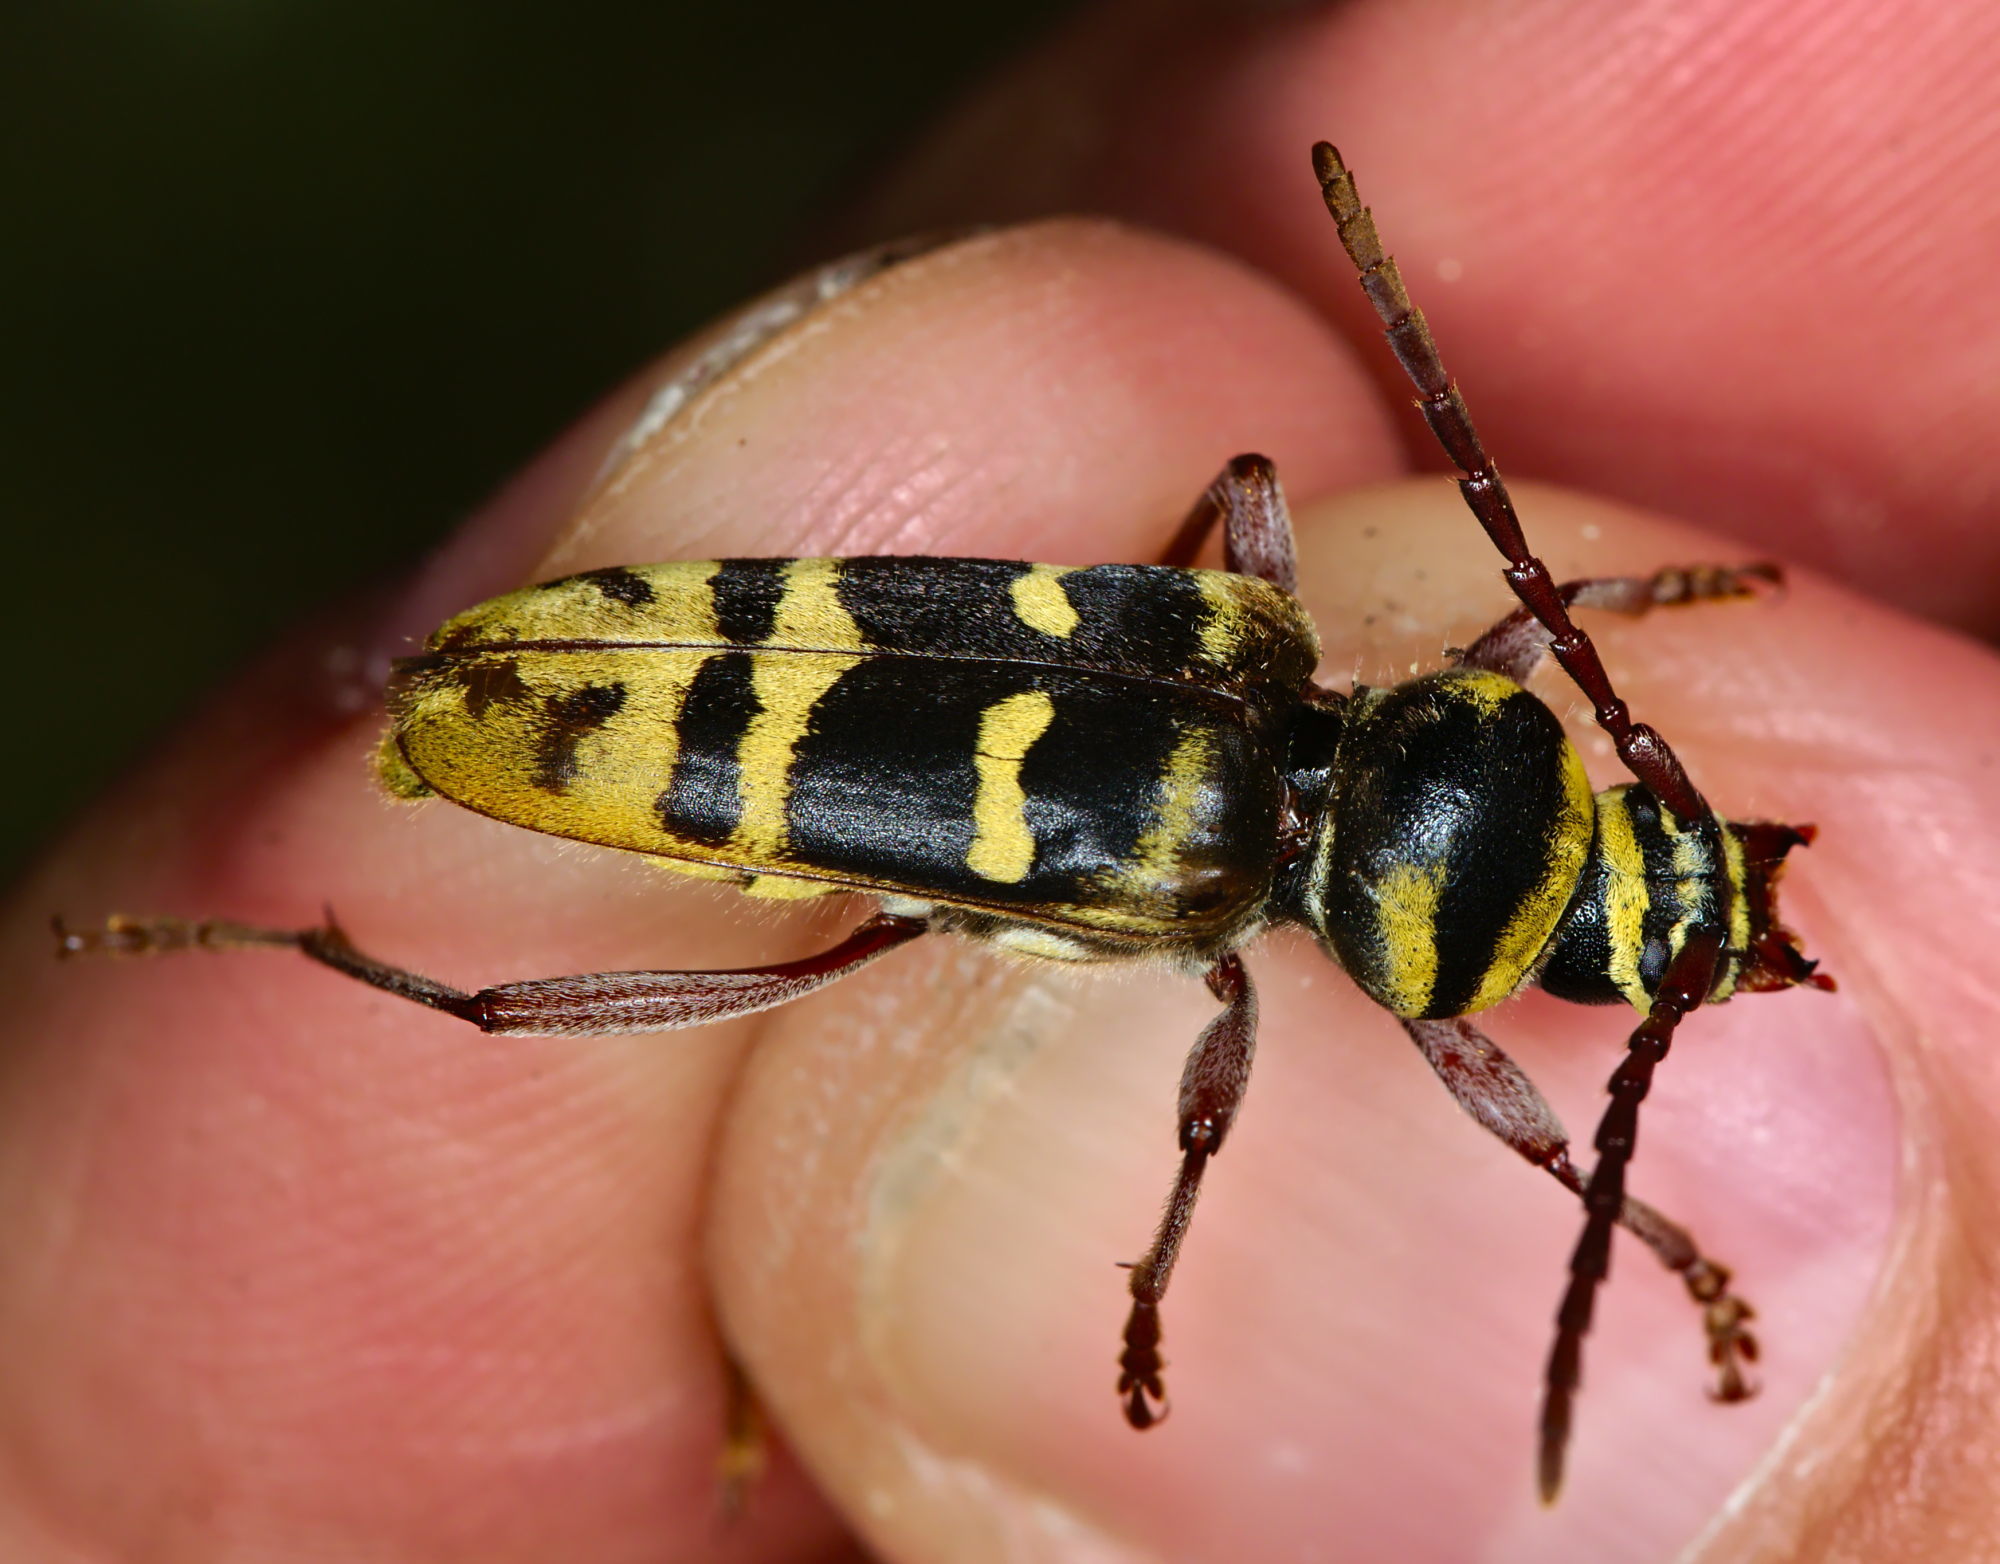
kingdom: Animalia
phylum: Arthropoda
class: Insecta
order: Coleoptera
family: Cerambycidae
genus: Plagionotus
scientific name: Plagionotus detritus
